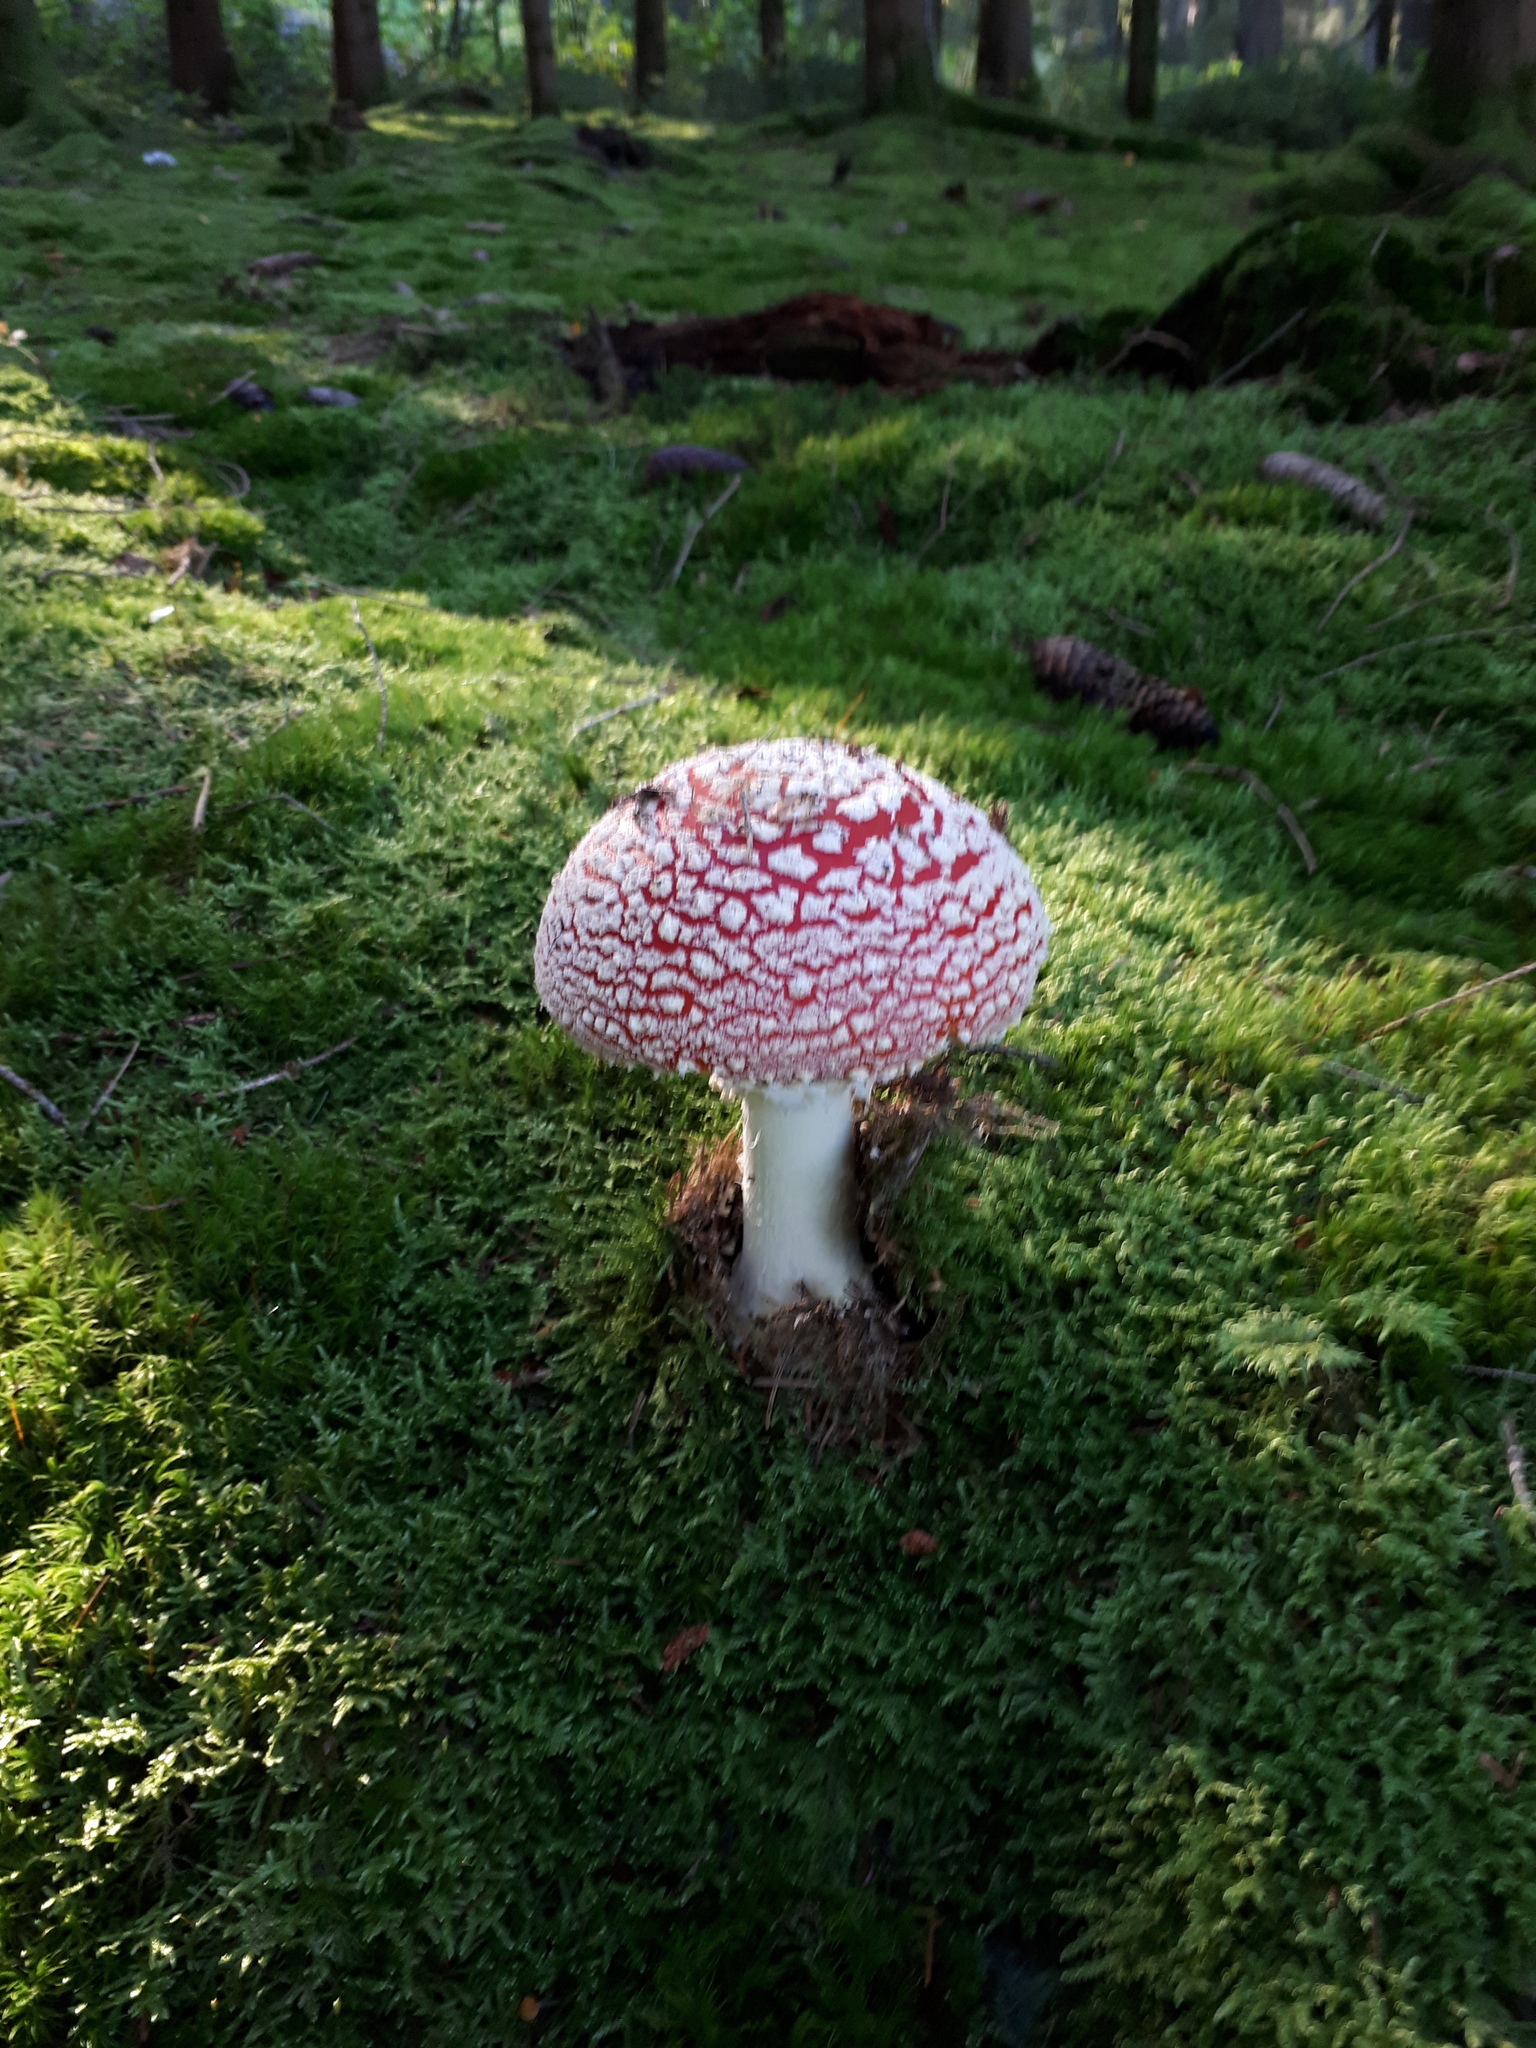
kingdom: Fungi
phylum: Basidiomycota
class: Agaricomycetes
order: Agaricales
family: Amanitaceae
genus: Amanita
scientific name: Amanita muscaria
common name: Fly agaric
